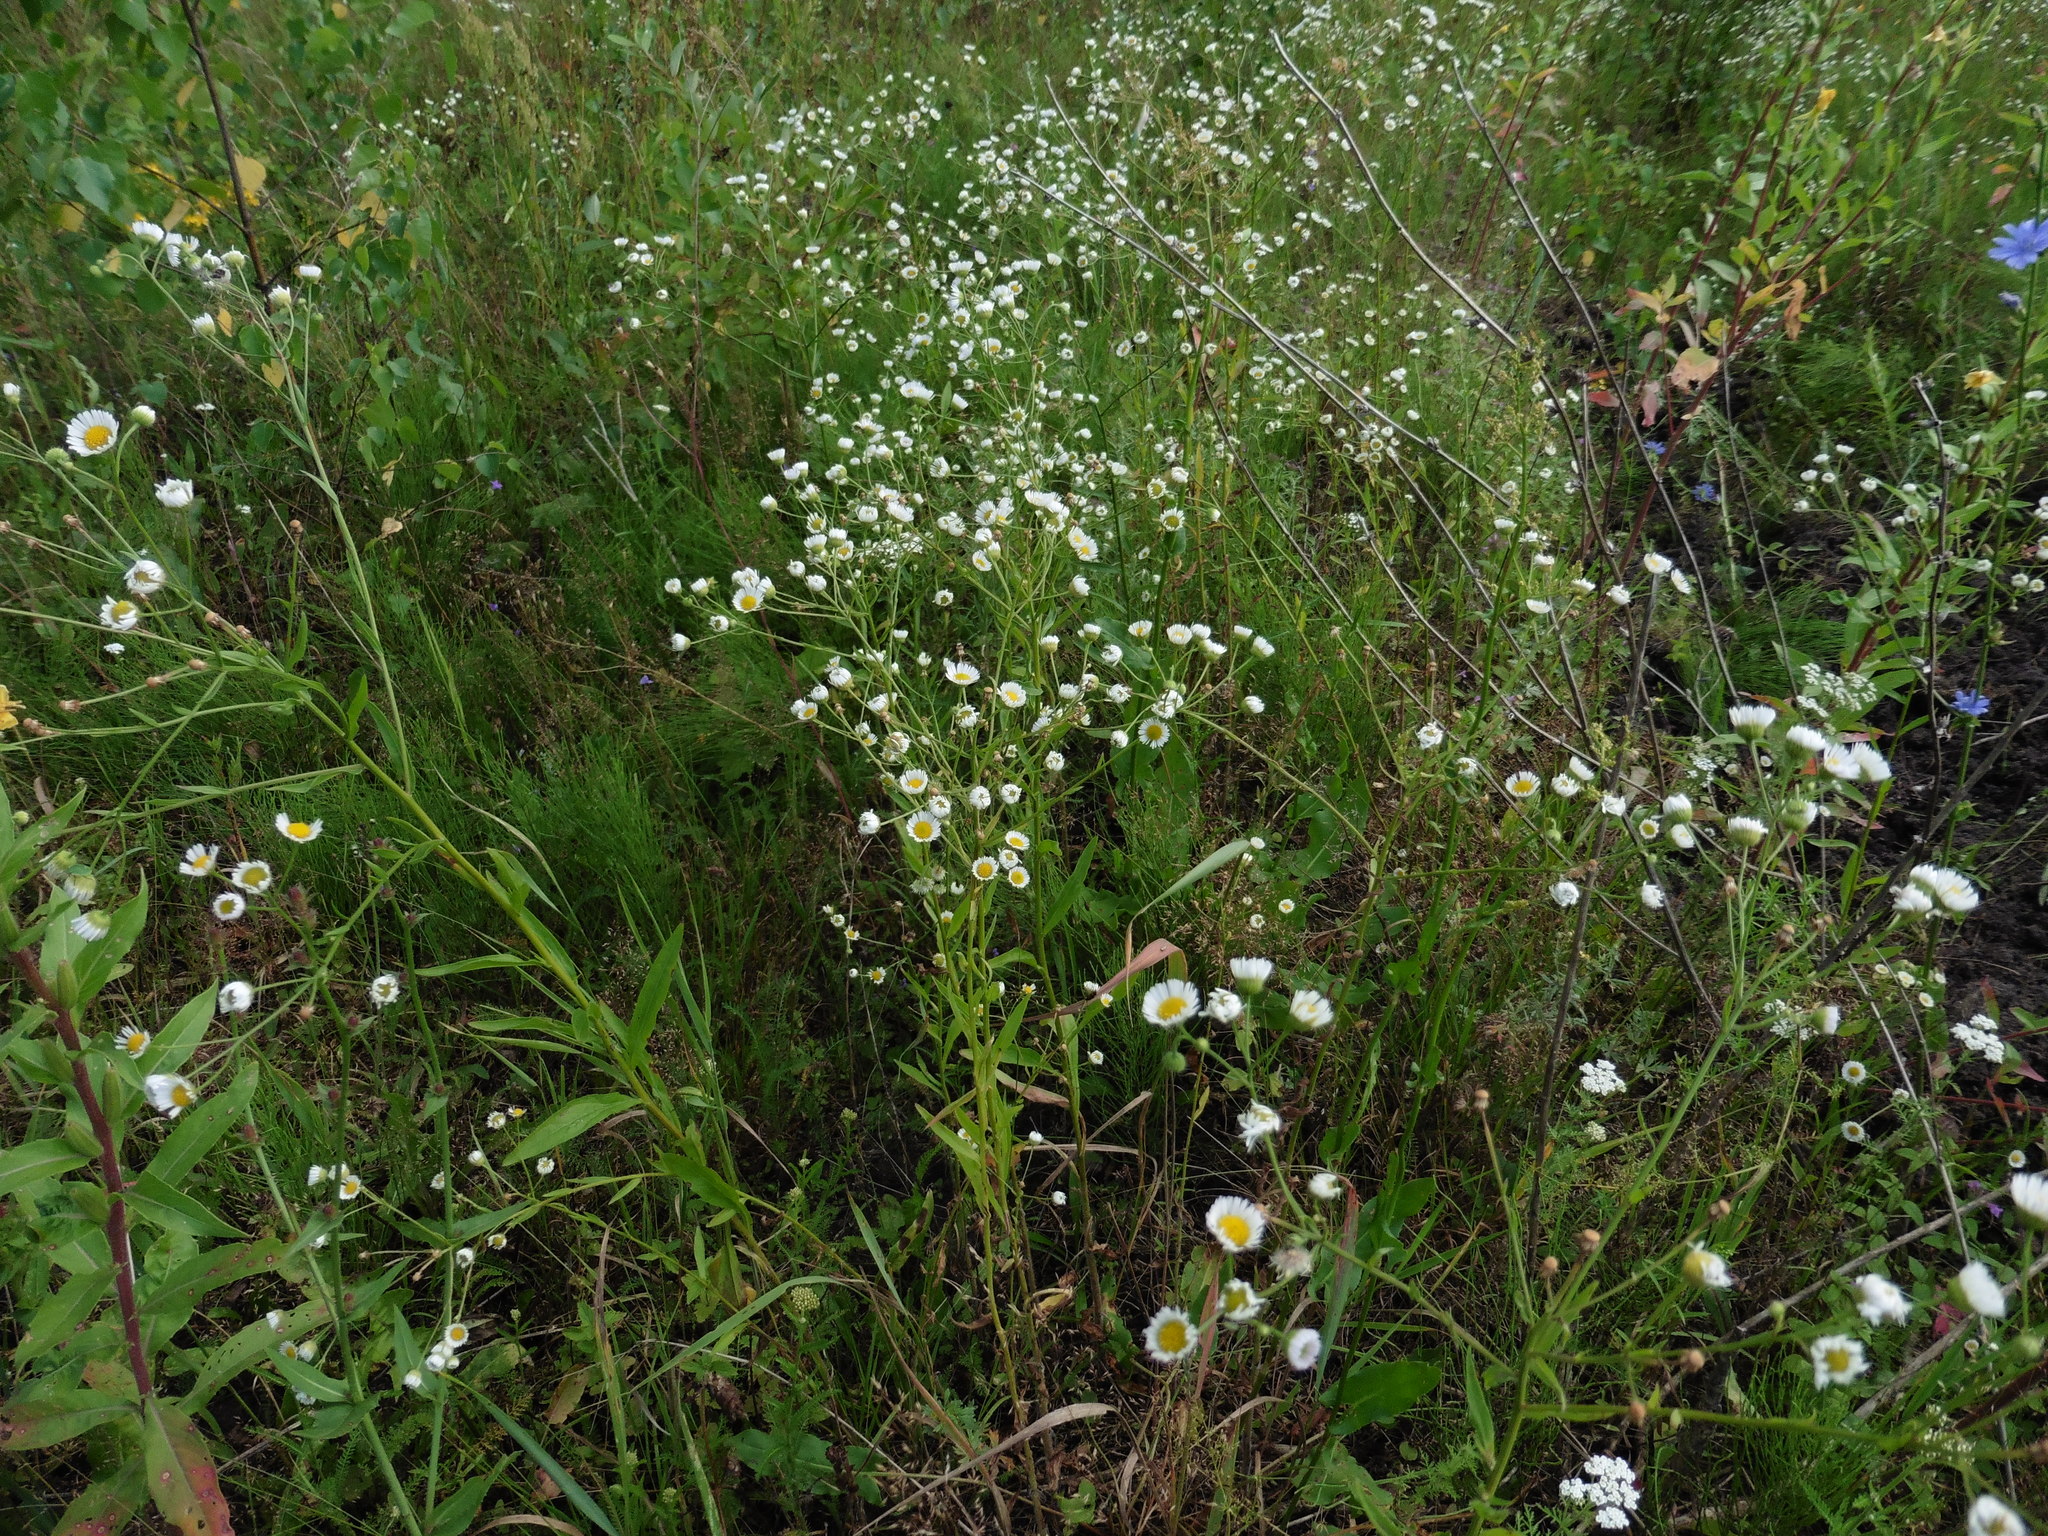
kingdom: Plantae
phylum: Tracheophyta
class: Magnoliopsida
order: Asterales
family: Asteraceae
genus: Erigeron
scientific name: Erigeron annuus
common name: Tall fleabane
